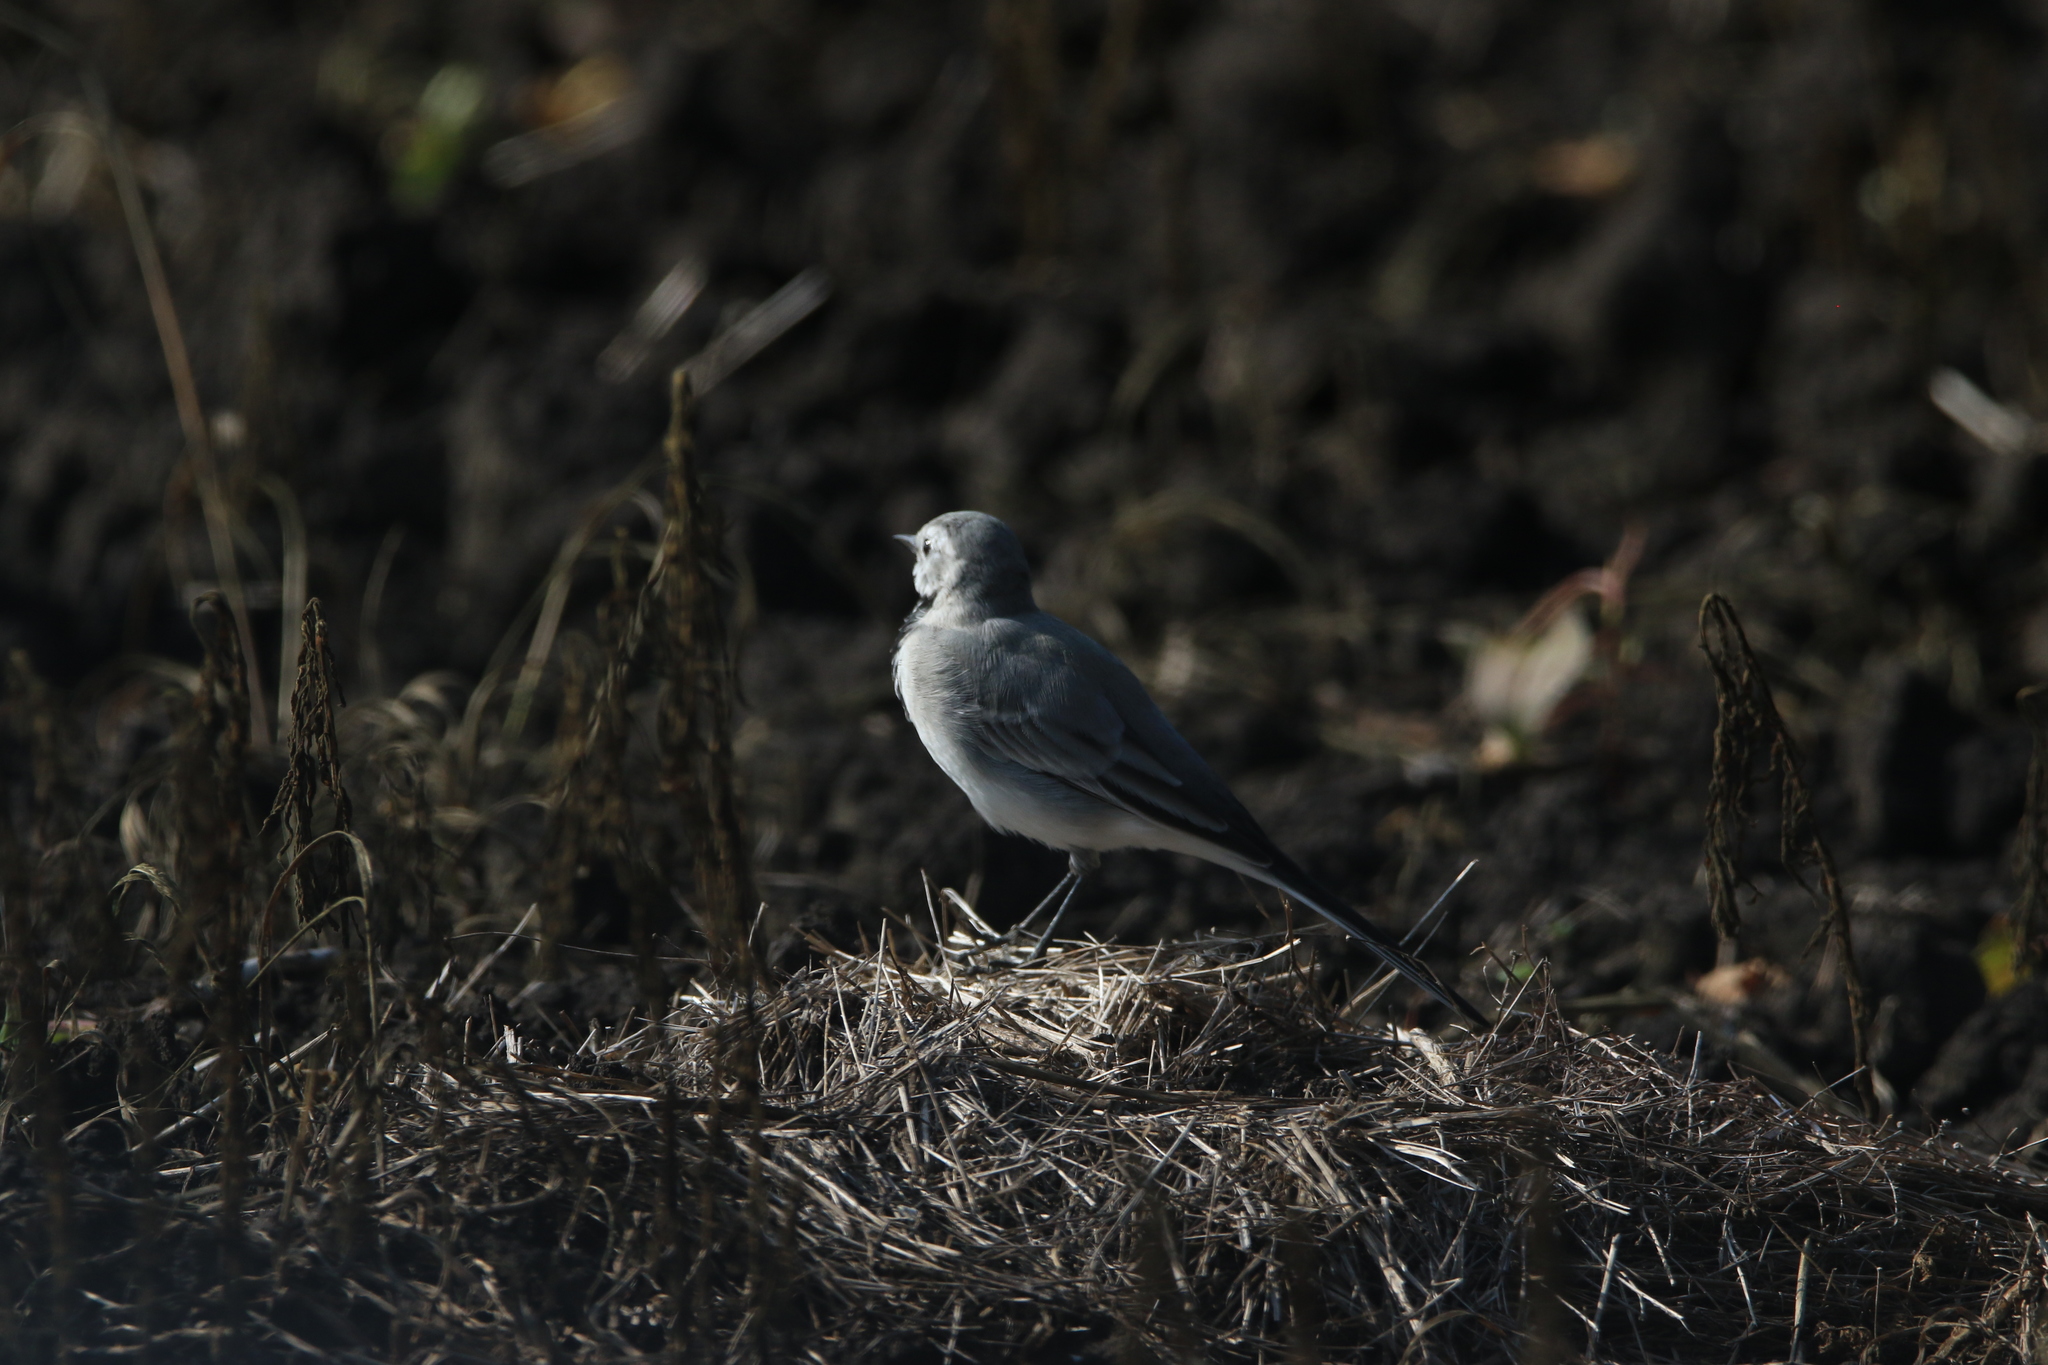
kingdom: Animalia
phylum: Chordata
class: Aves
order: Passeriformes
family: Motacillidae
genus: Motacilla
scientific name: Motacilla alba
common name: White wagtail
